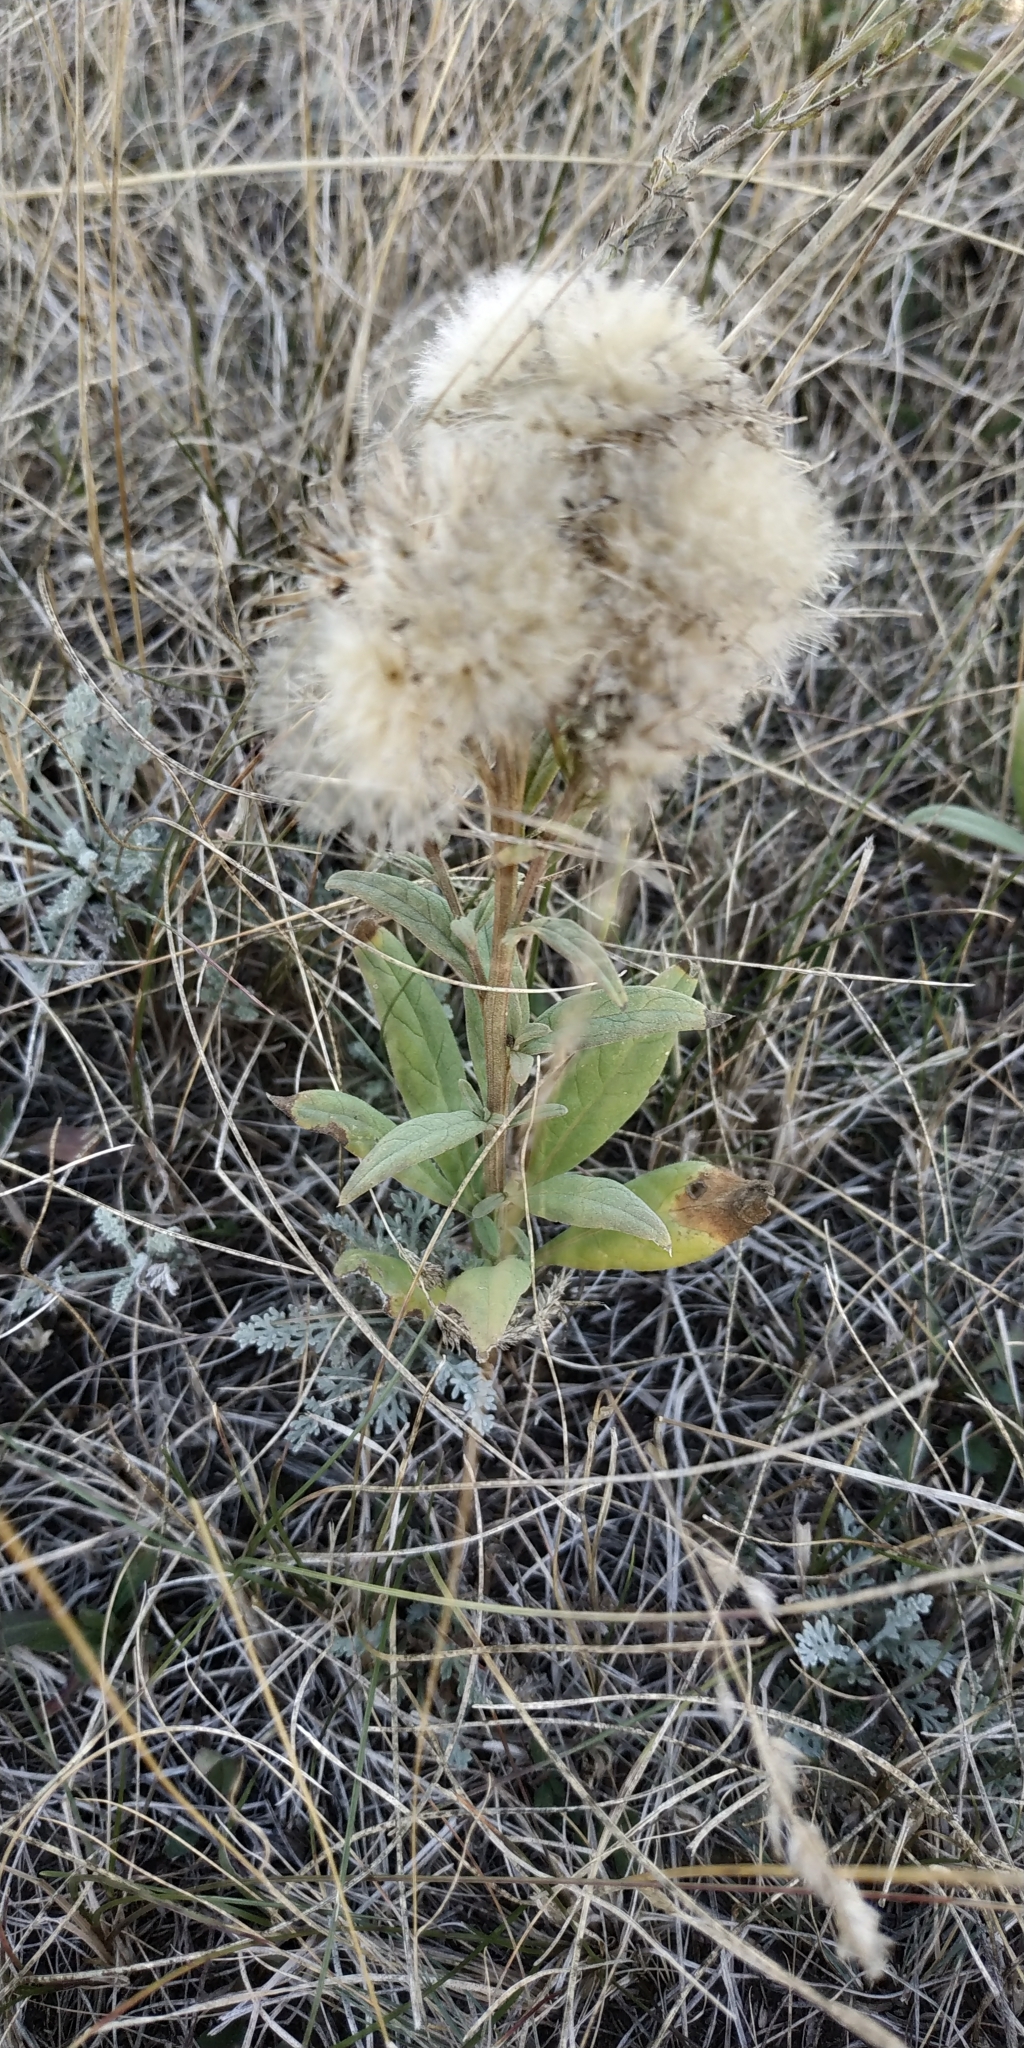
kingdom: Plantae
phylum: Tracheophyta
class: Magnoliopsida
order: Asterales
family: Asteraceae
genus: Saussurea
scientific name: Saussurea amara
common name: Alberta sawwort
